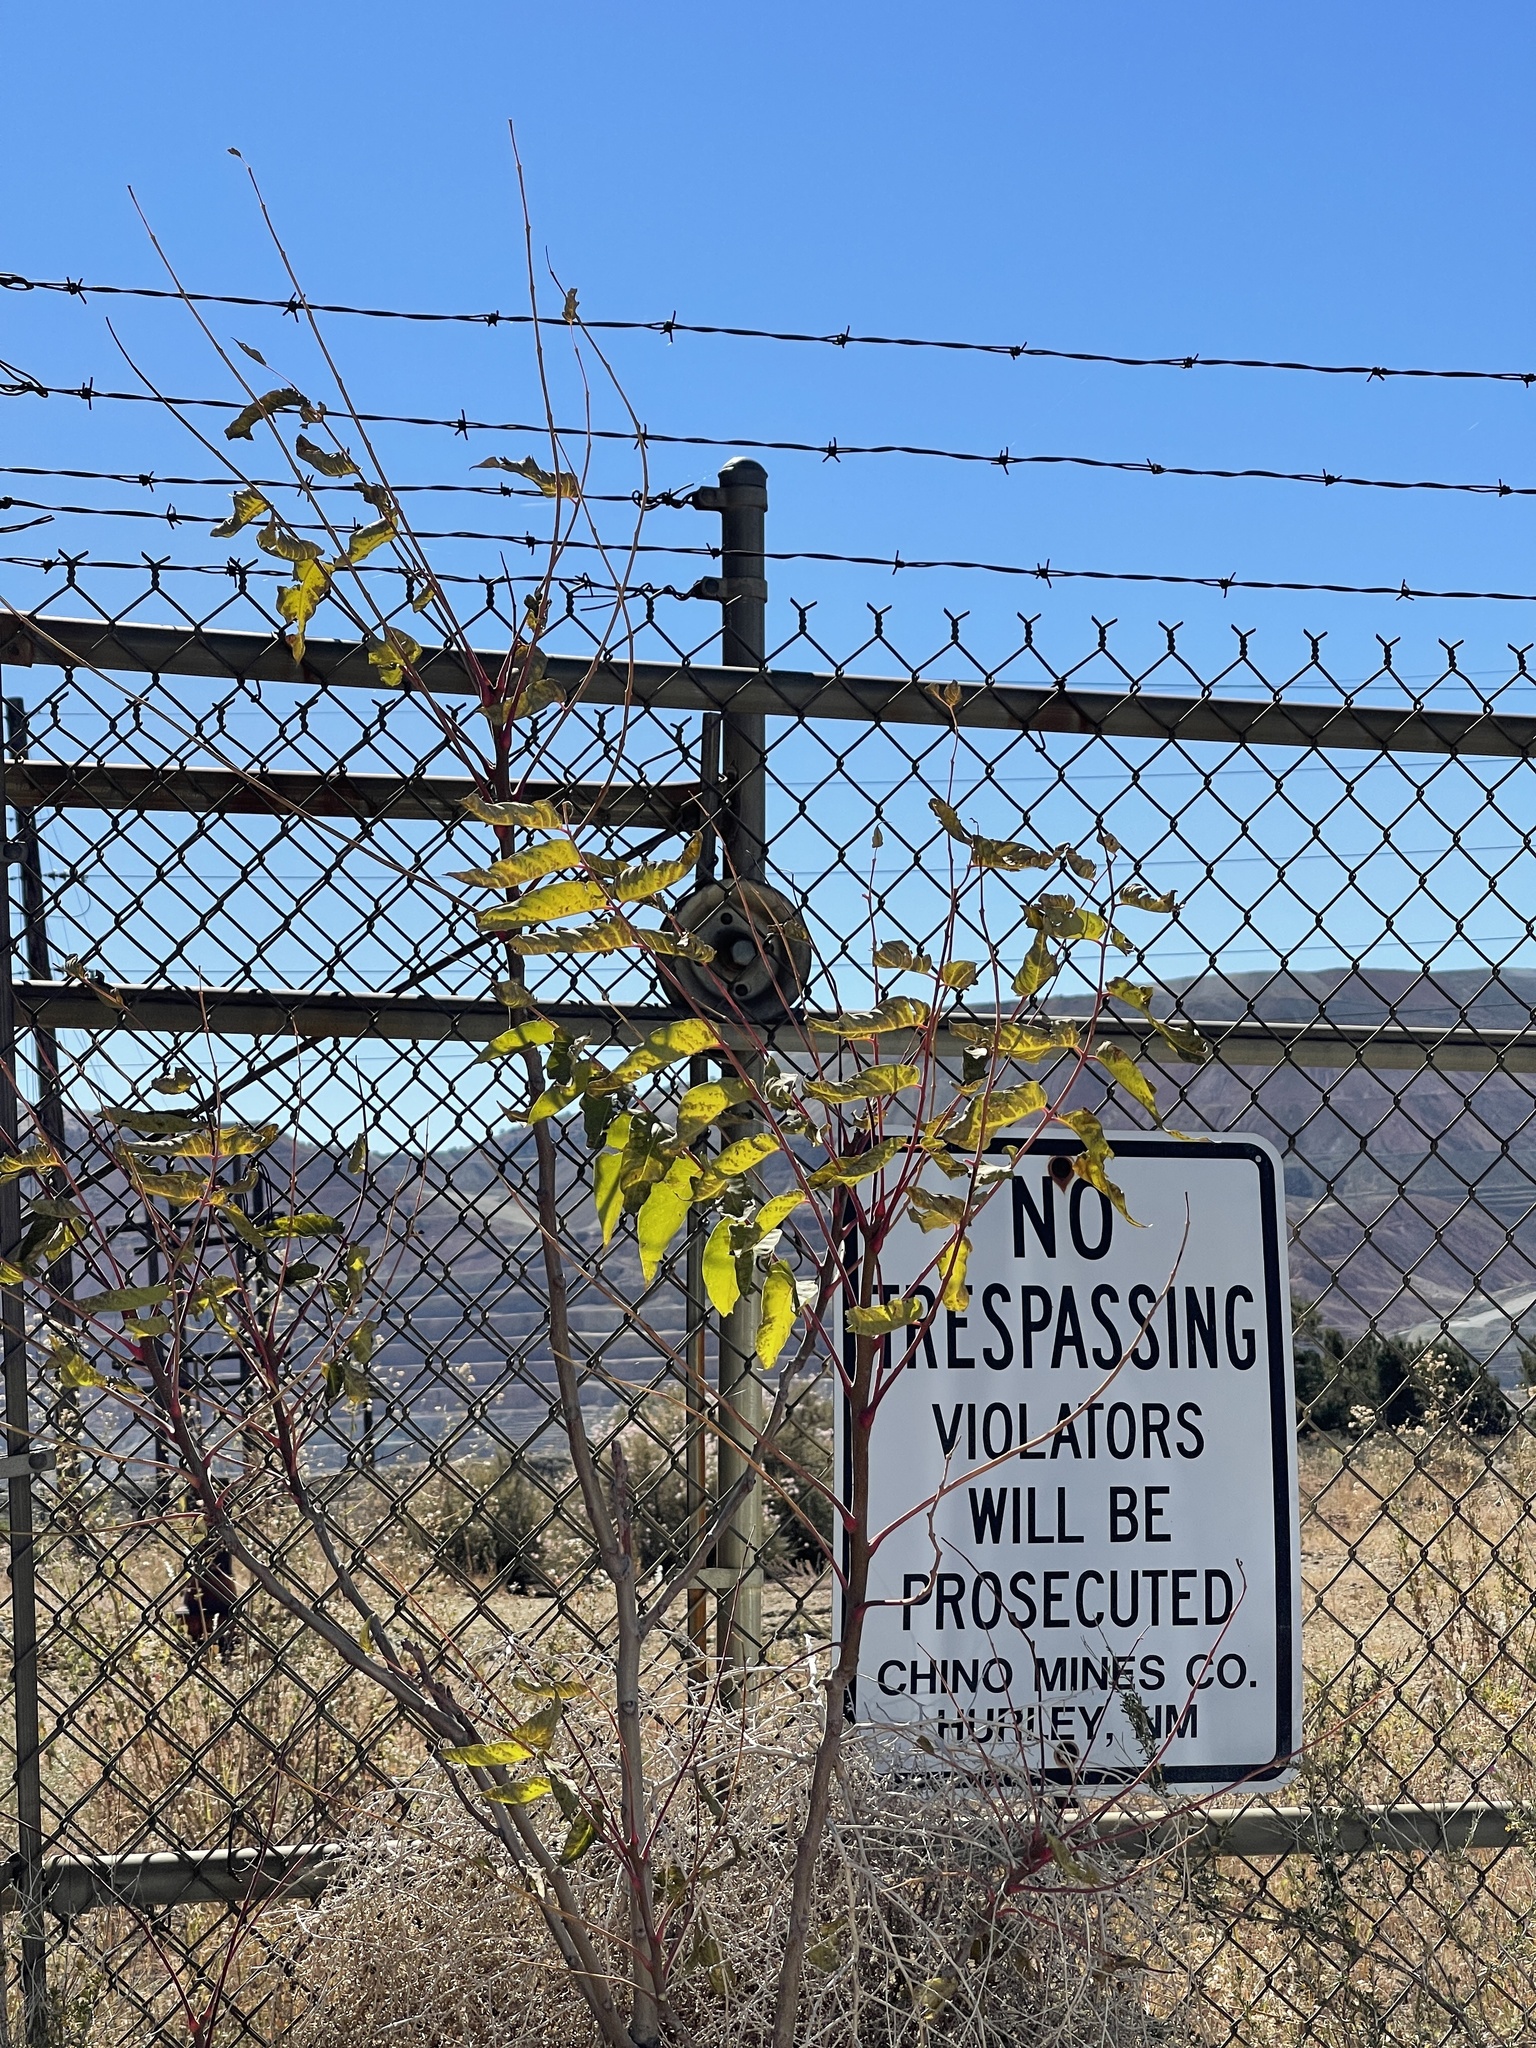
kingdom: Plantae
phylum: Tracheophyta
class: Magnoliopsida
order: Sapindales
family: Simaroubaceae
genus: Ailanthus
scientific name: Ailanthus altissima
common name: Tree-of-heaven
